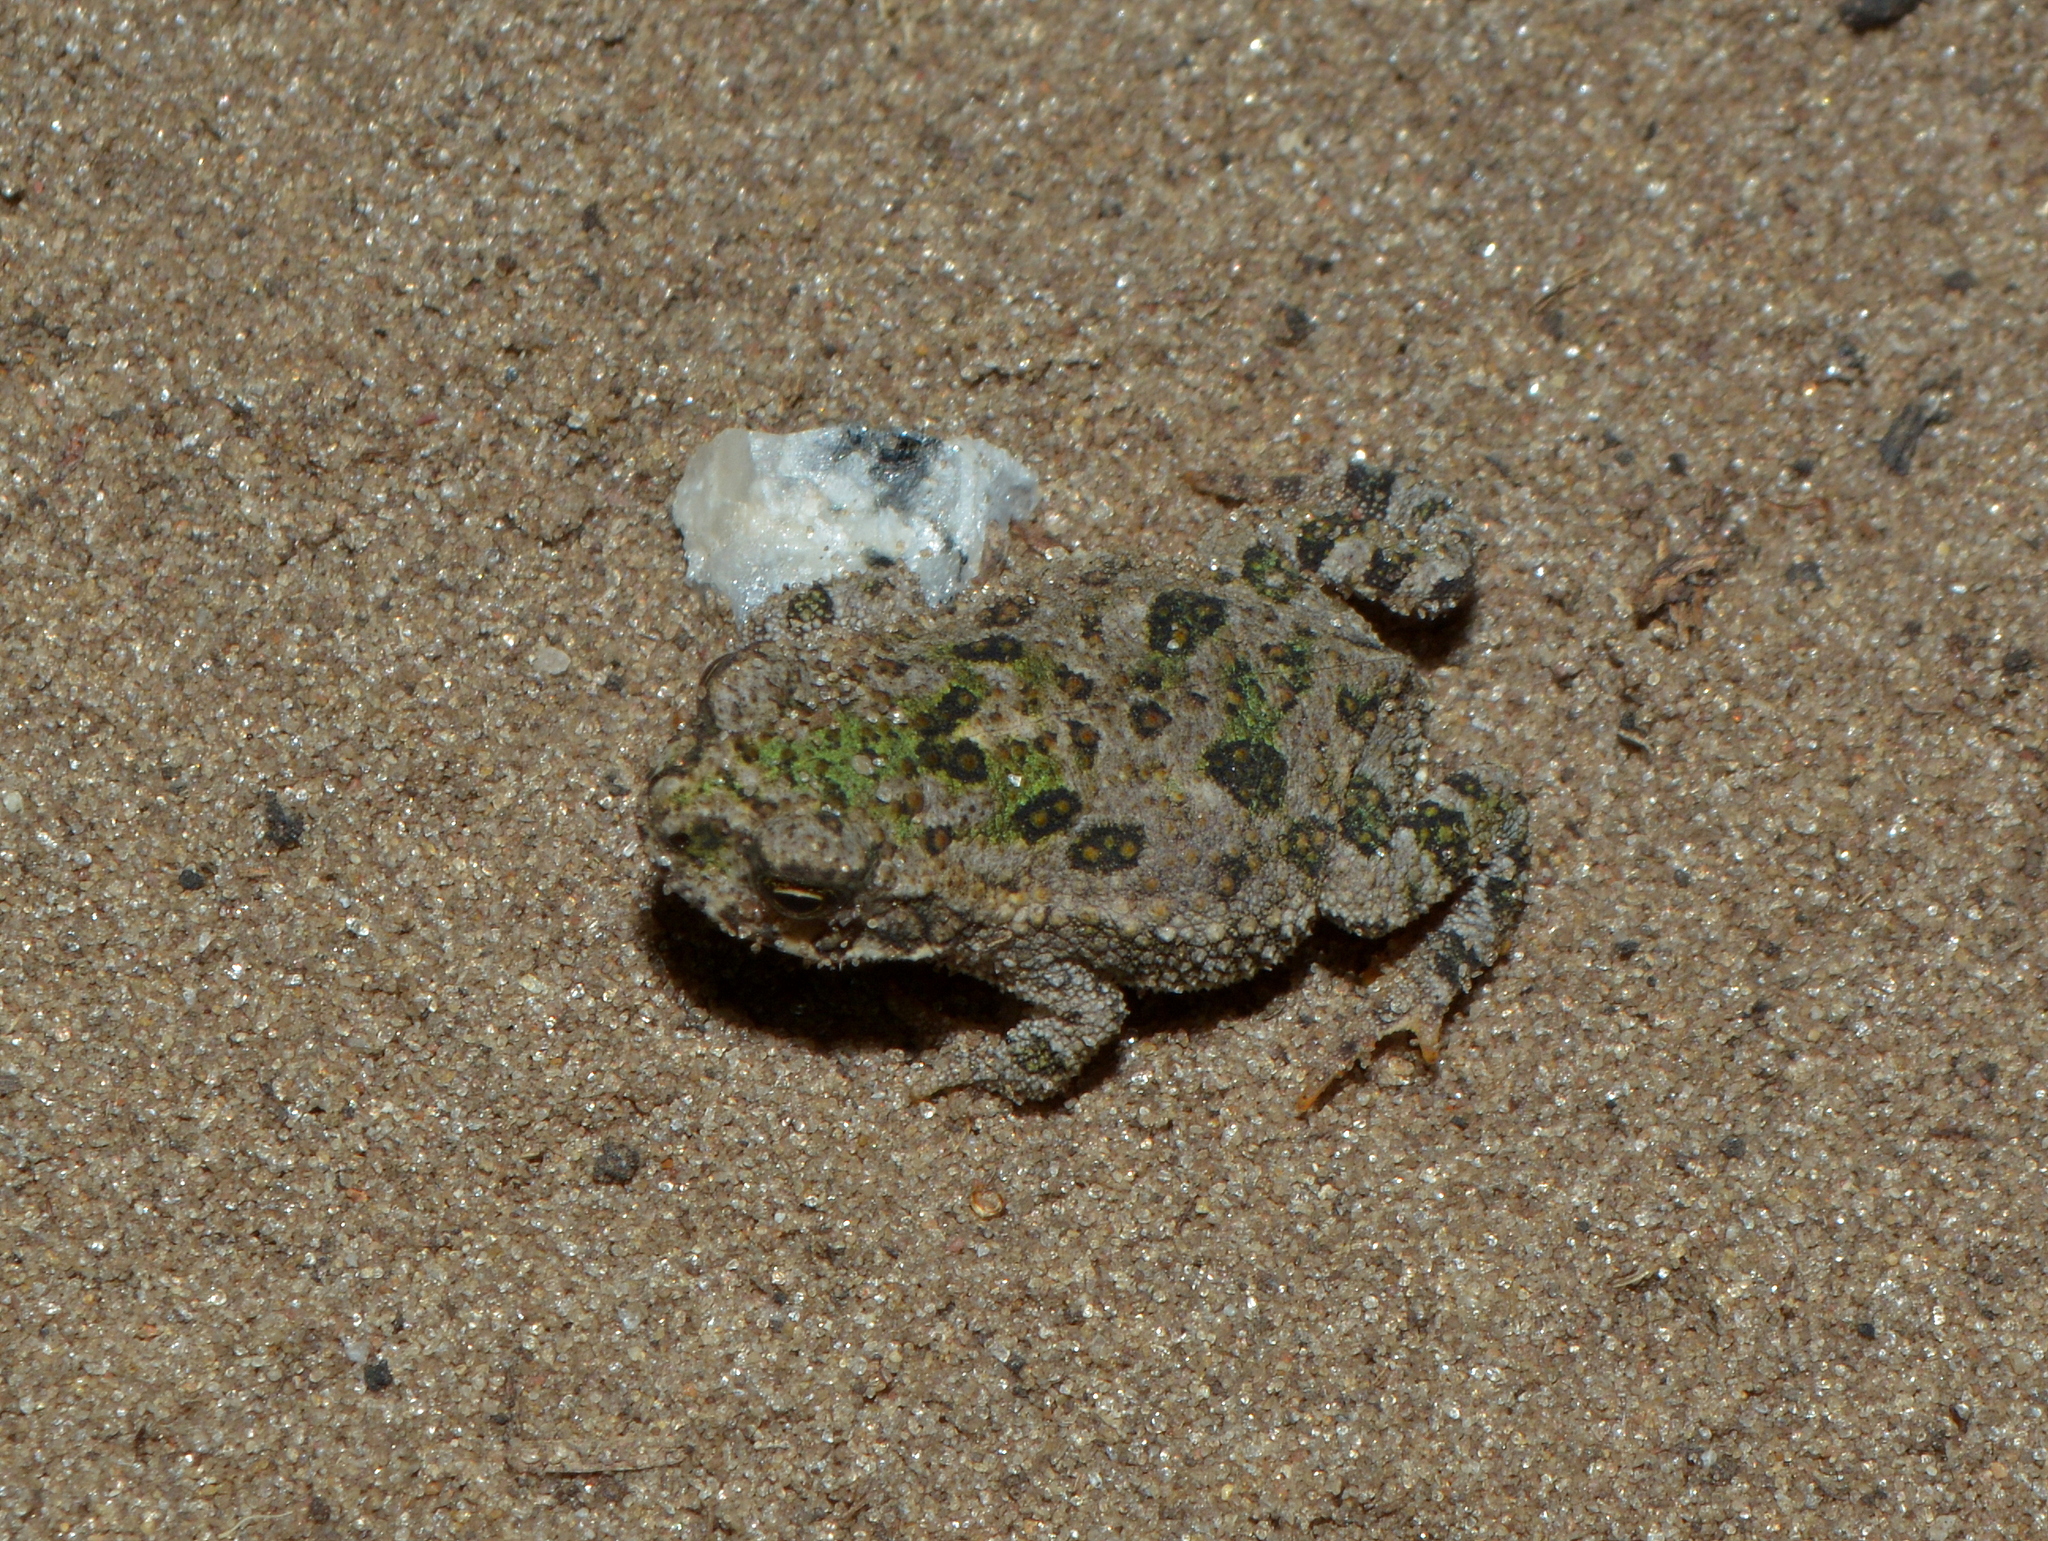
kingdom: Animalia
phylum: Chordata
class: Amphibia
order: Anura
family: Bufonidae
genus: Rhinella
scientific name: Rhinella dorbignyi
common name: D´orbigny’s toad
